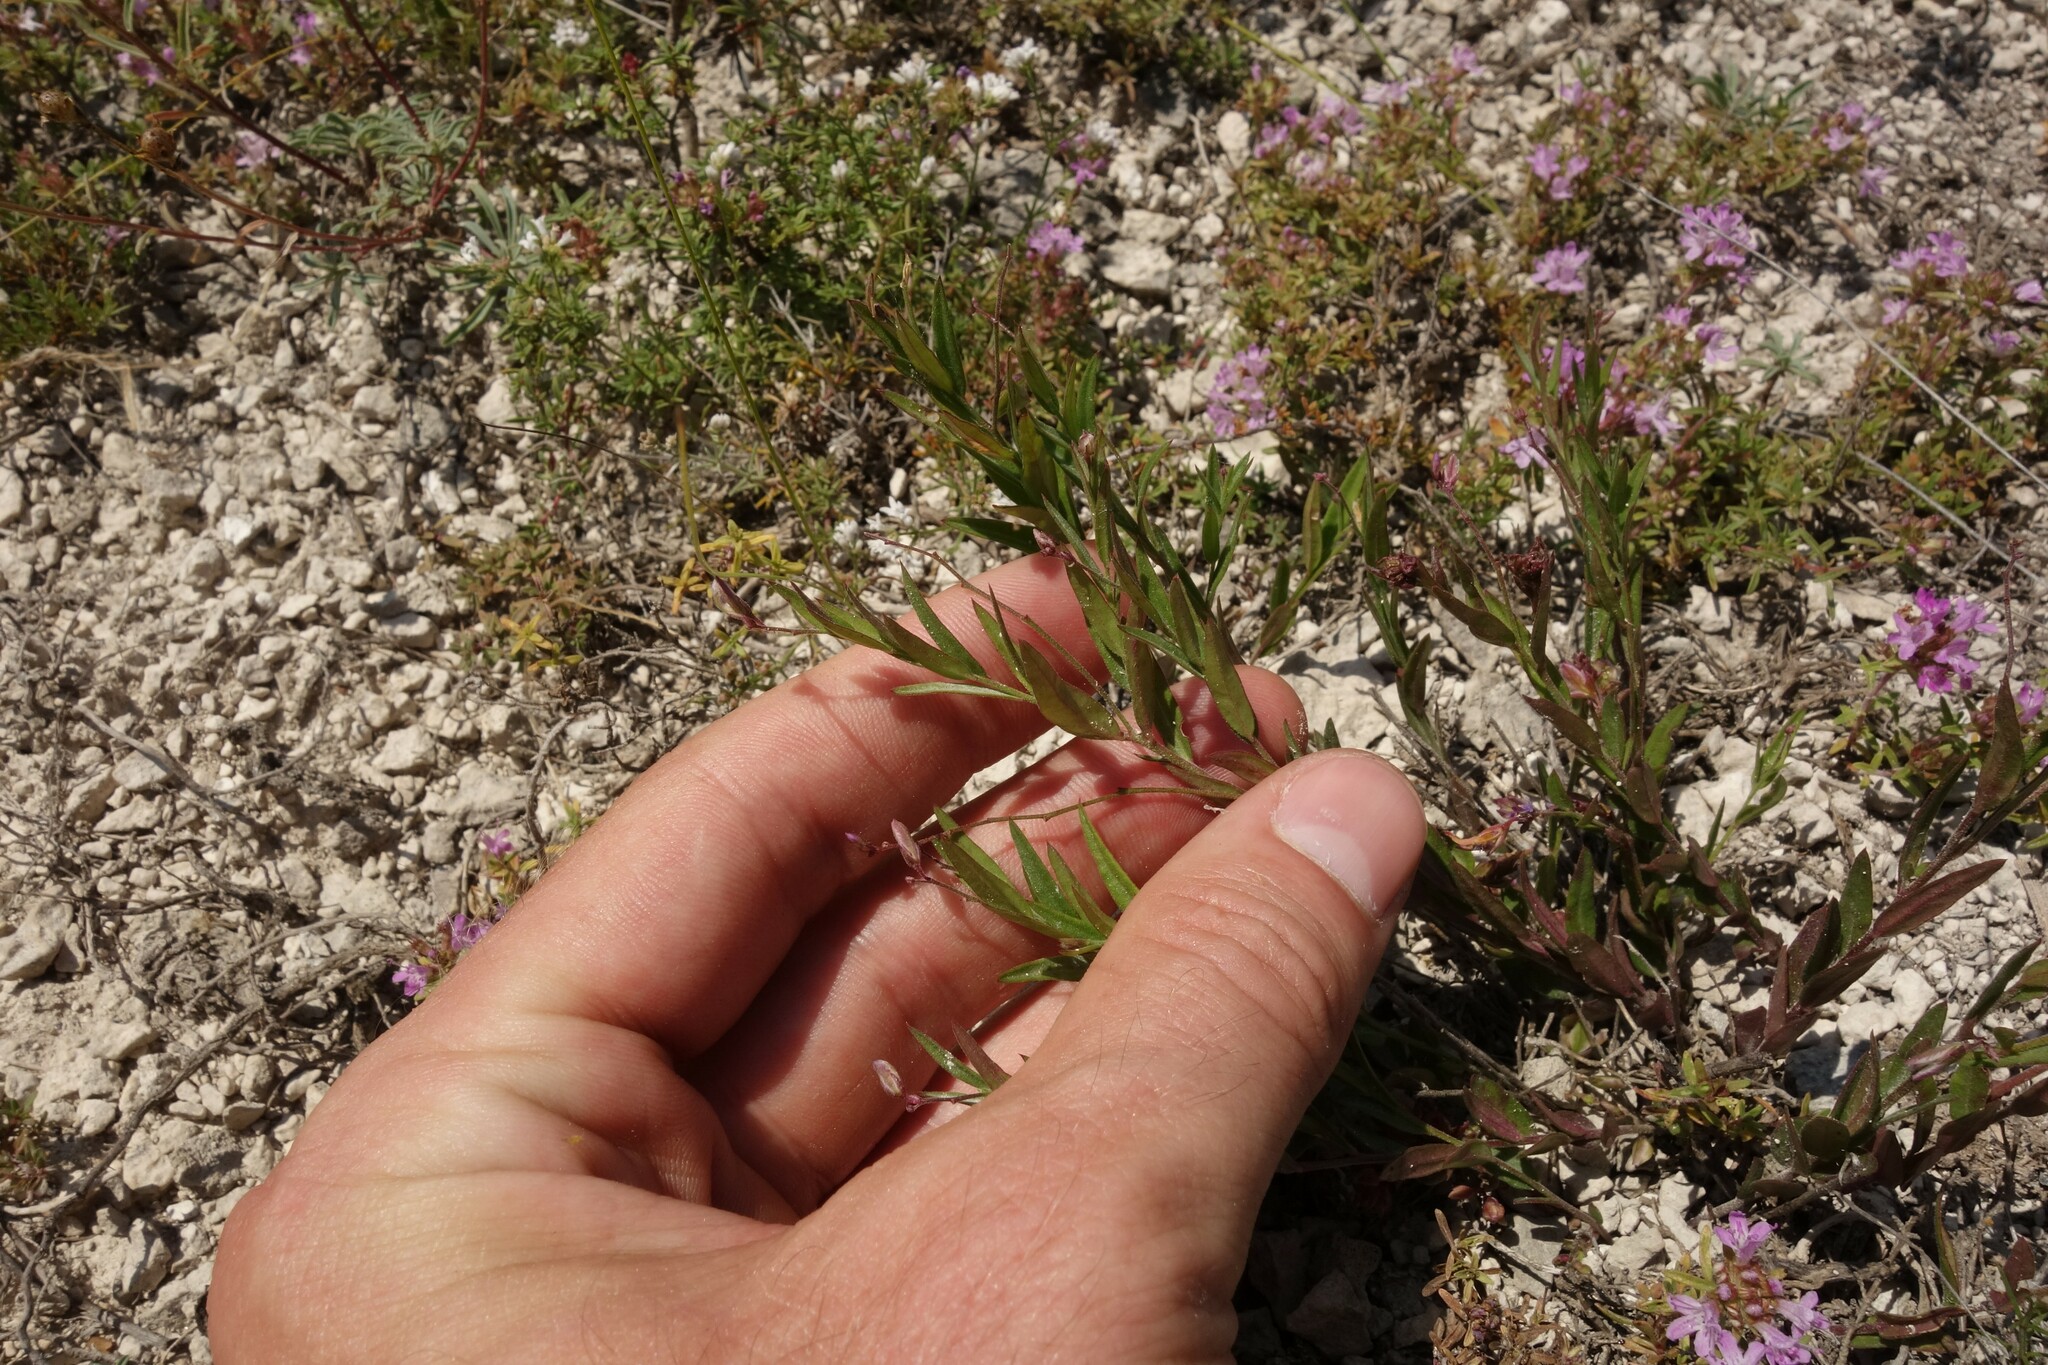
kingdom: Plantae
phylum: Tracheophyta
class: Magnoliopsida
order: Fabales
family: Polygalaceae
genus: Polygala
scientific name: Polygala sibirica
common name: Siberian polygala
